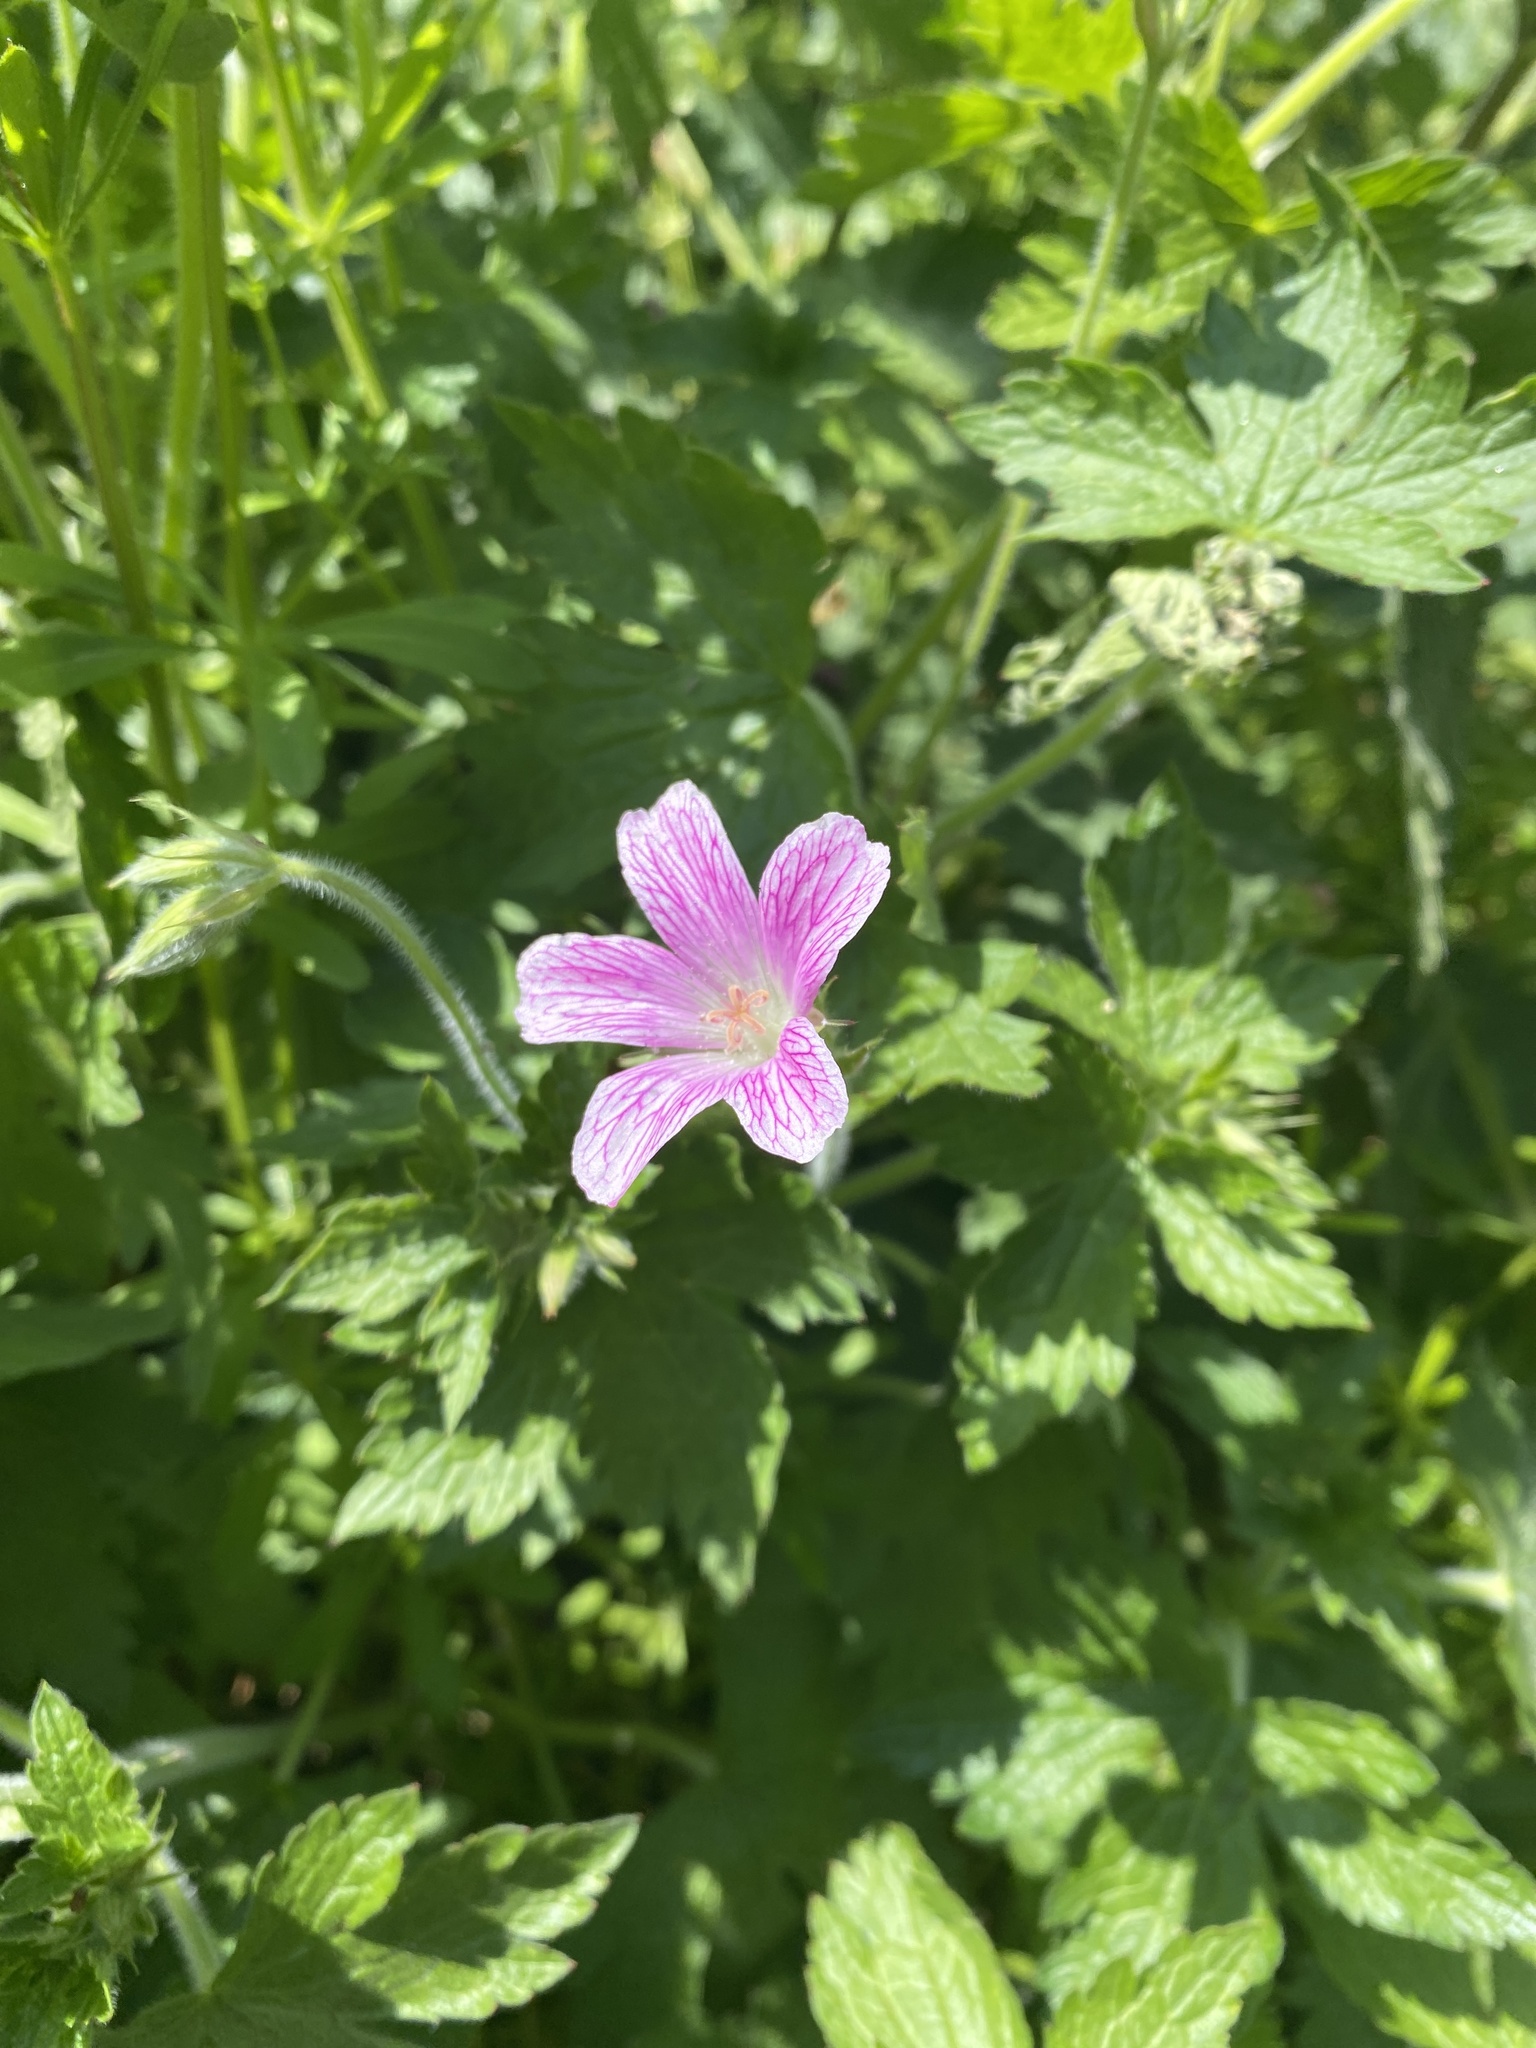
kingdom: Plantae
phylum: Tracheophyta
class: Magnoliopsida
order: Geraniales
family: Geraniaceae
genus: Geranium
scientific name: Geranium oxonianum
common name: Druce's crane's-bill
